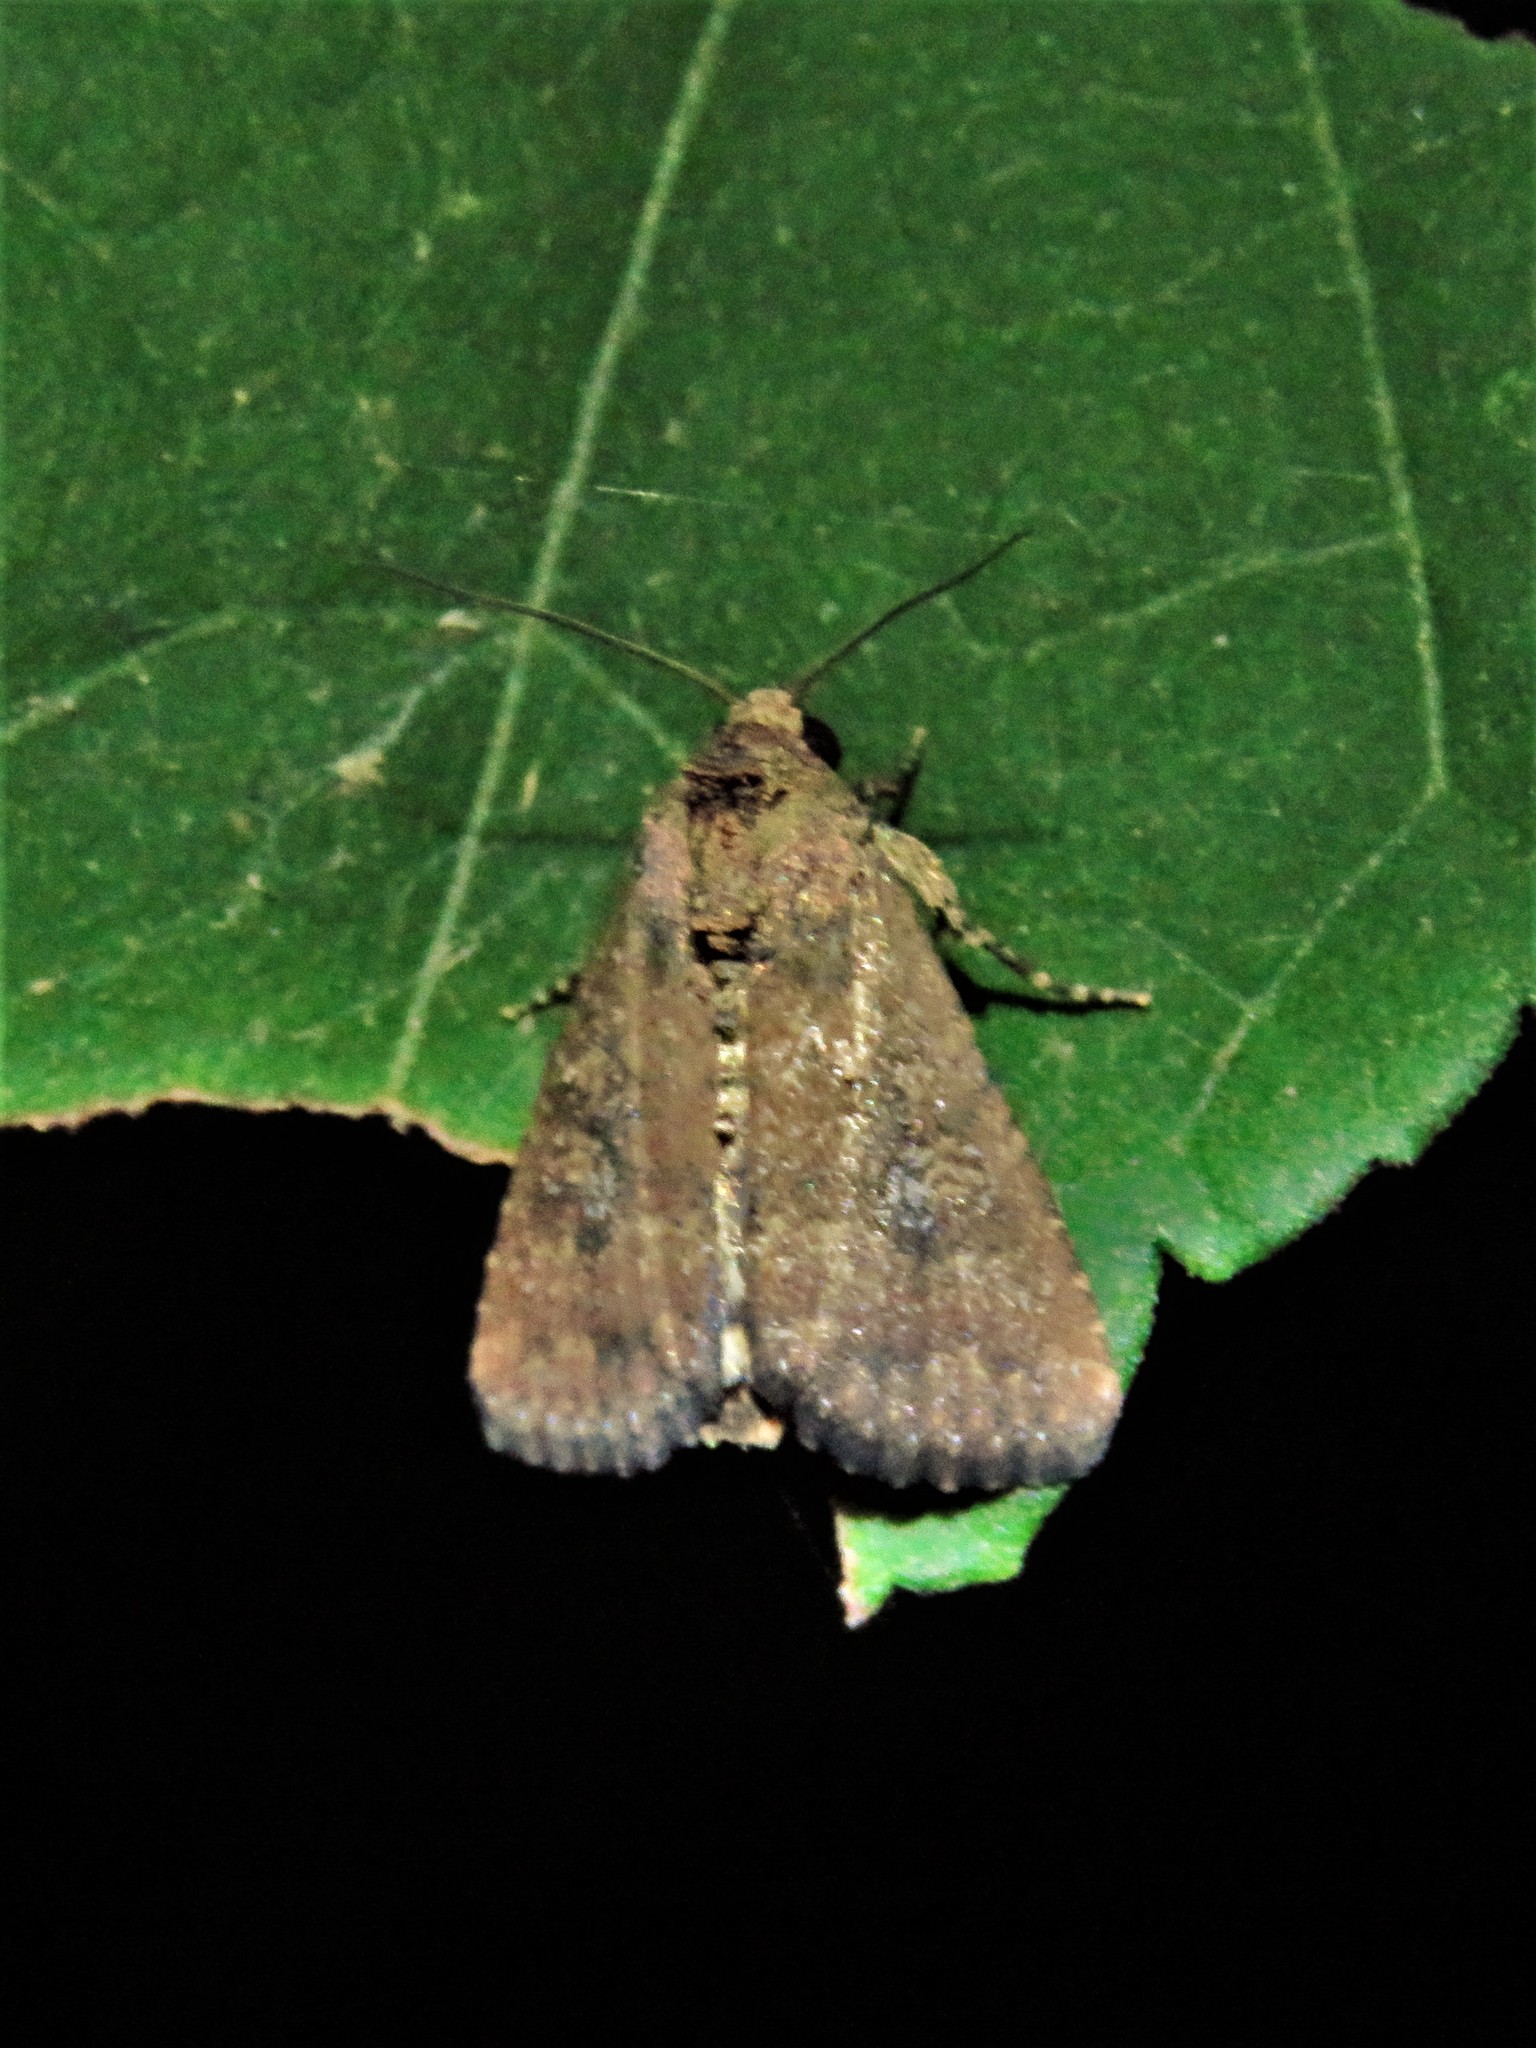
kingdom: Animalia
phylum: Arthropoda
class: Insecta
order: Lepidoptera
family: Noctuidae
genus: Condica
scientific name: Condica sutor
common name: Cobbler moth
